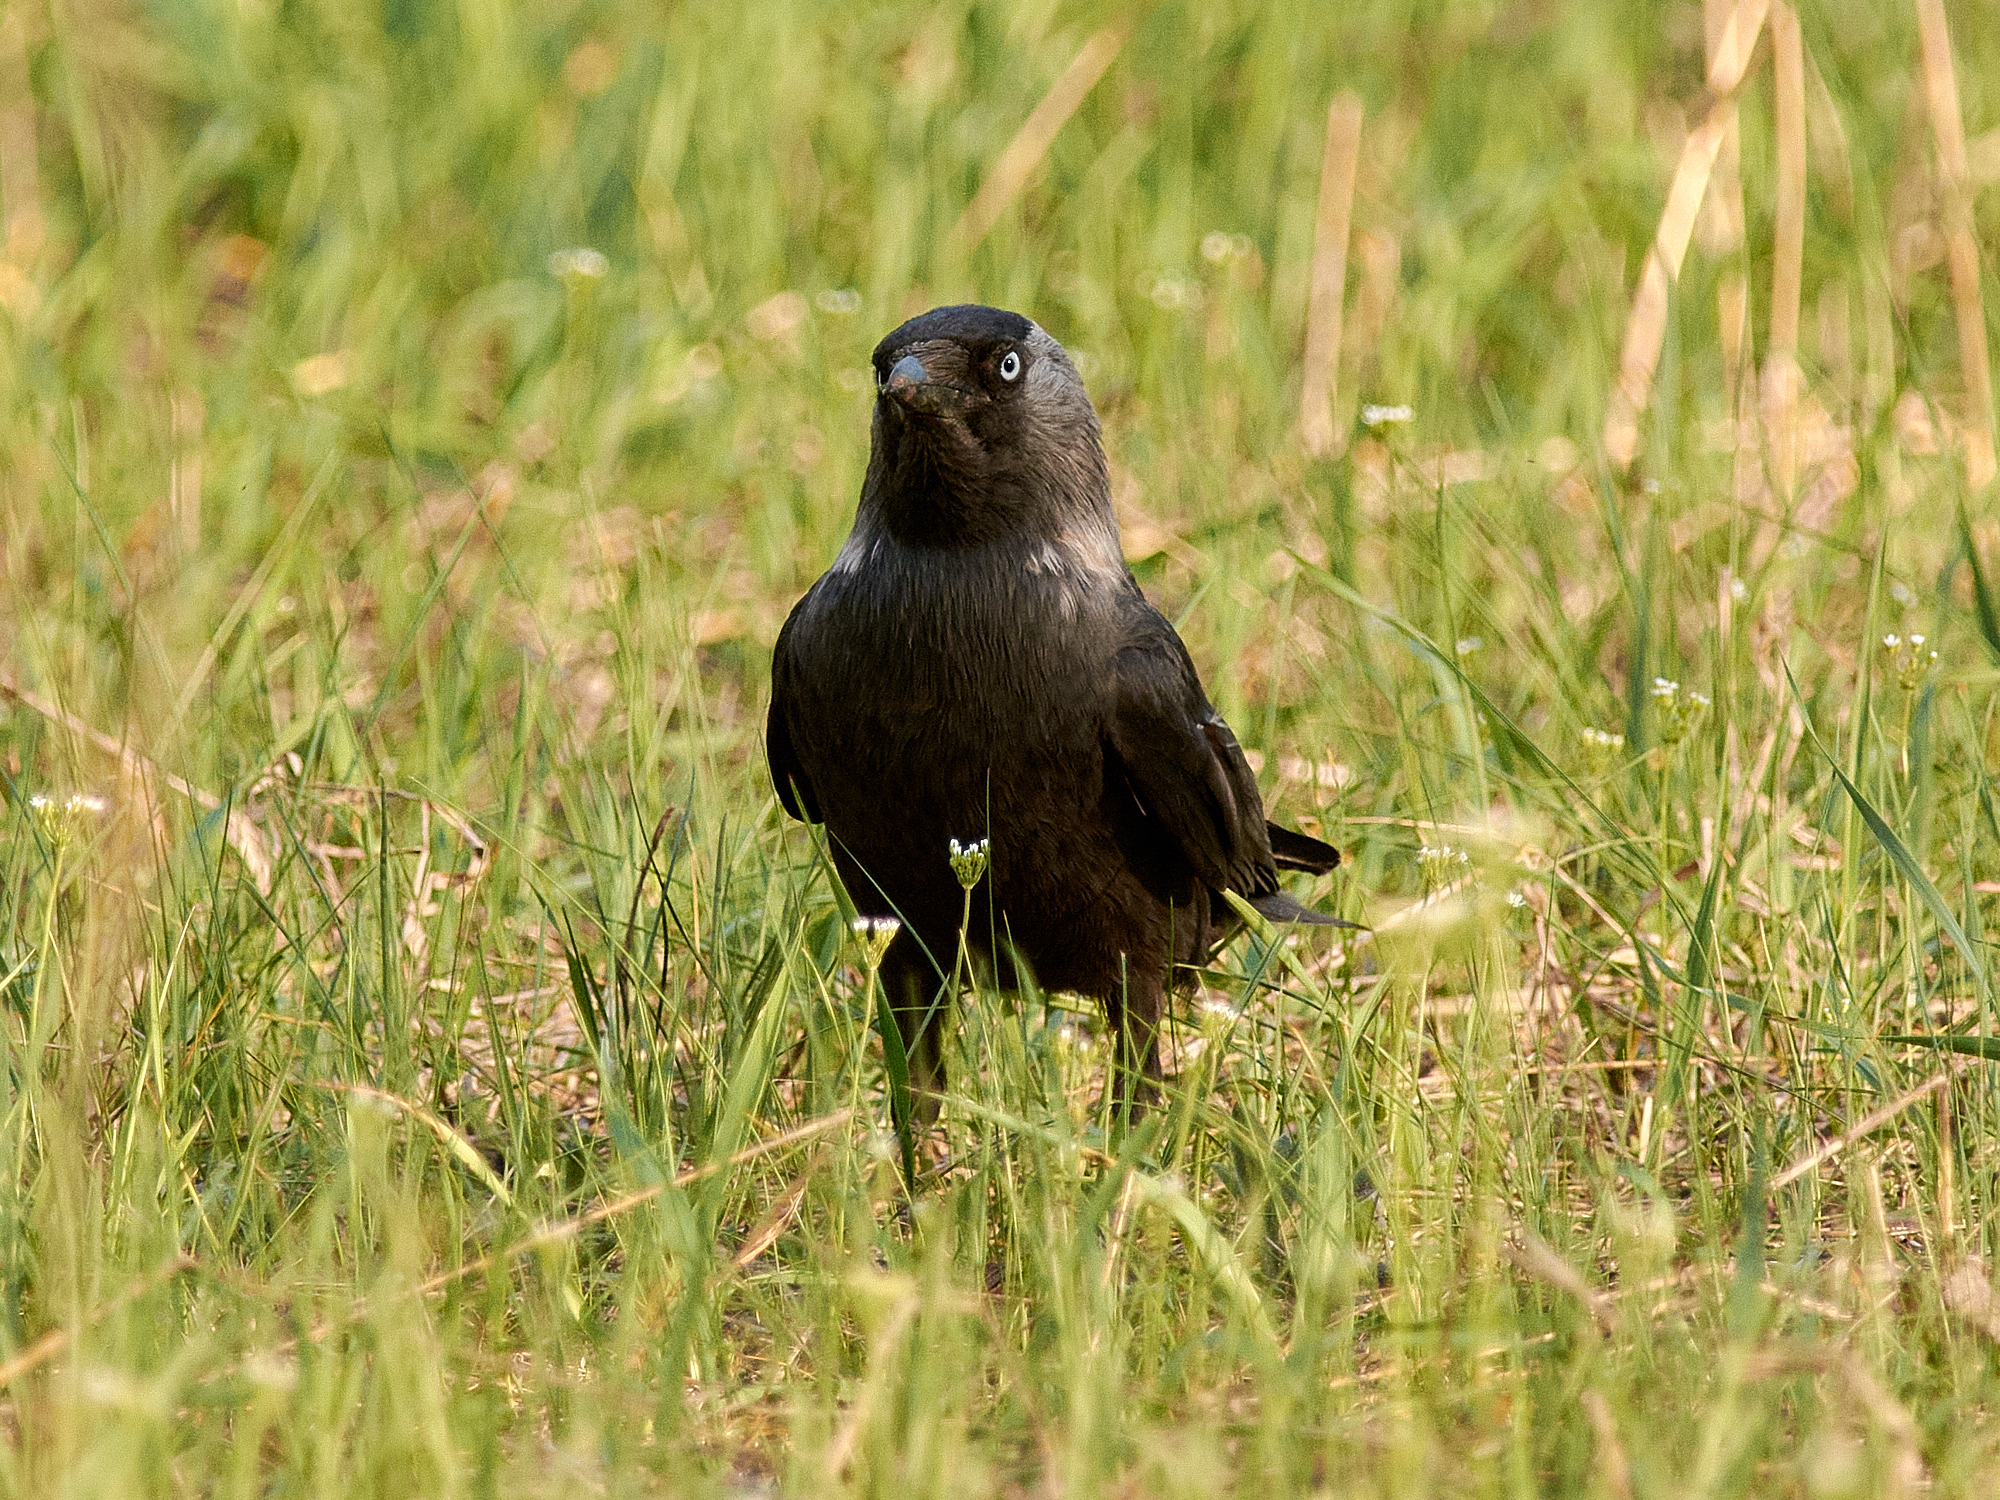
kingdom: Animalia
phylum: Chordata
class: Aves
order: Passeriformes
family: Corvidae
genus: Coloeus
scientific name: Coloeus monedula
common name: Western jackdaw
